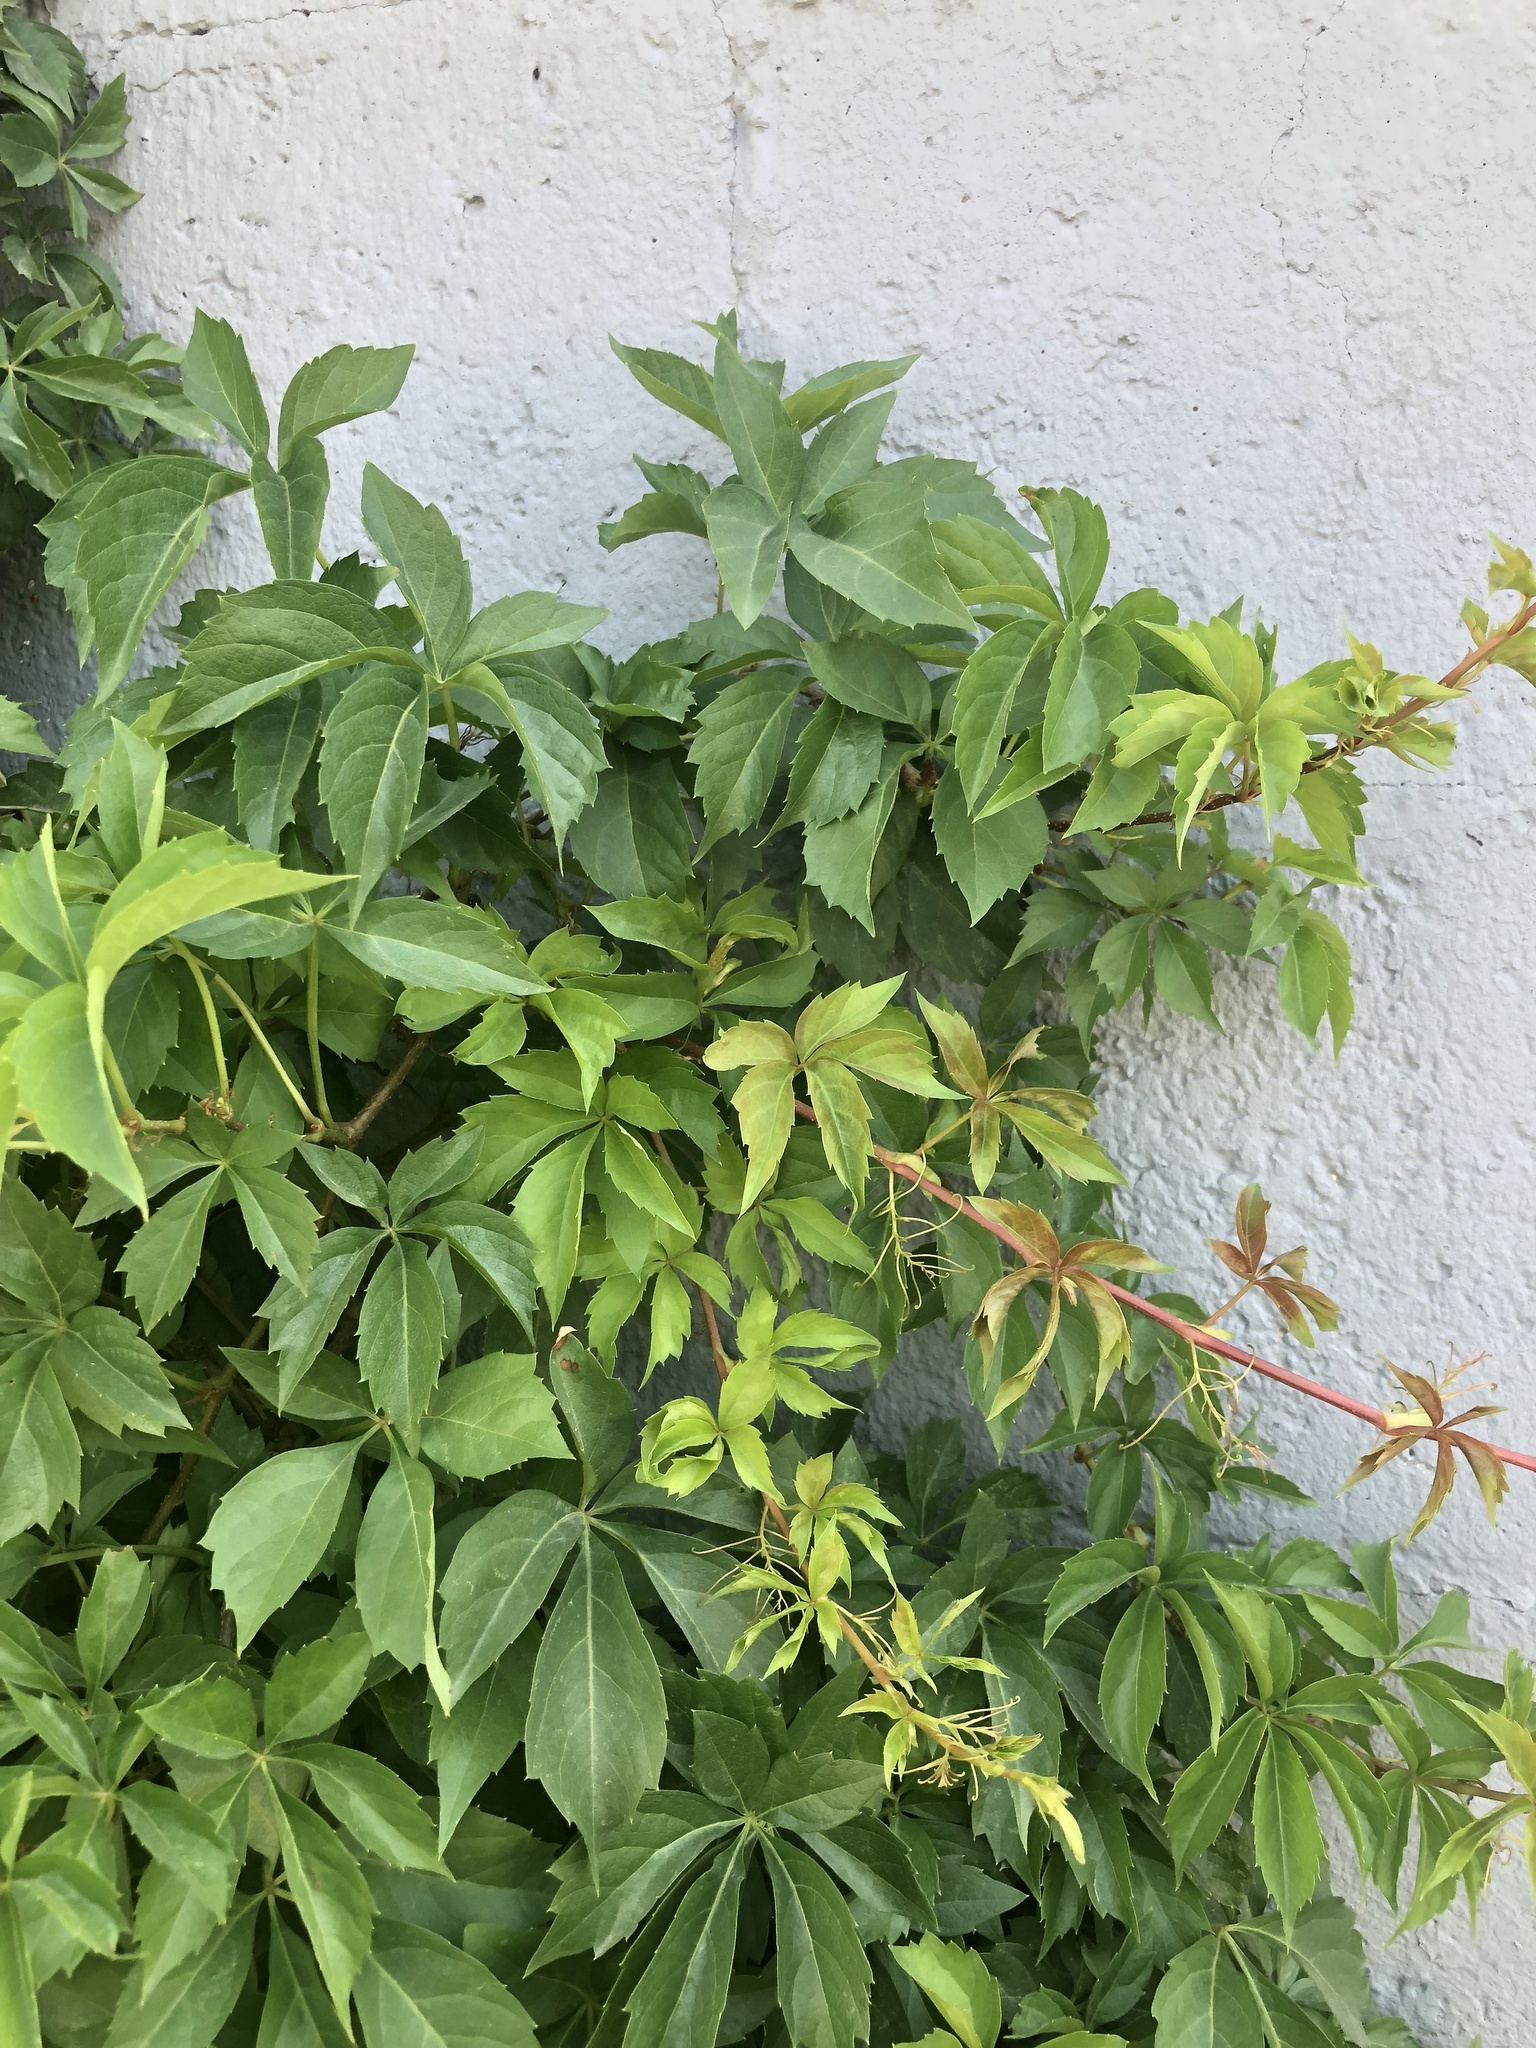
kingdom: Plantae
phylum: Tracheophyta
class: Magnoliopsida
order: Vitales
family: Vitaceae
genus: Parthenocissus
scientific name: Parthenocissus quinquefolia
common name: Virginia-creeper
